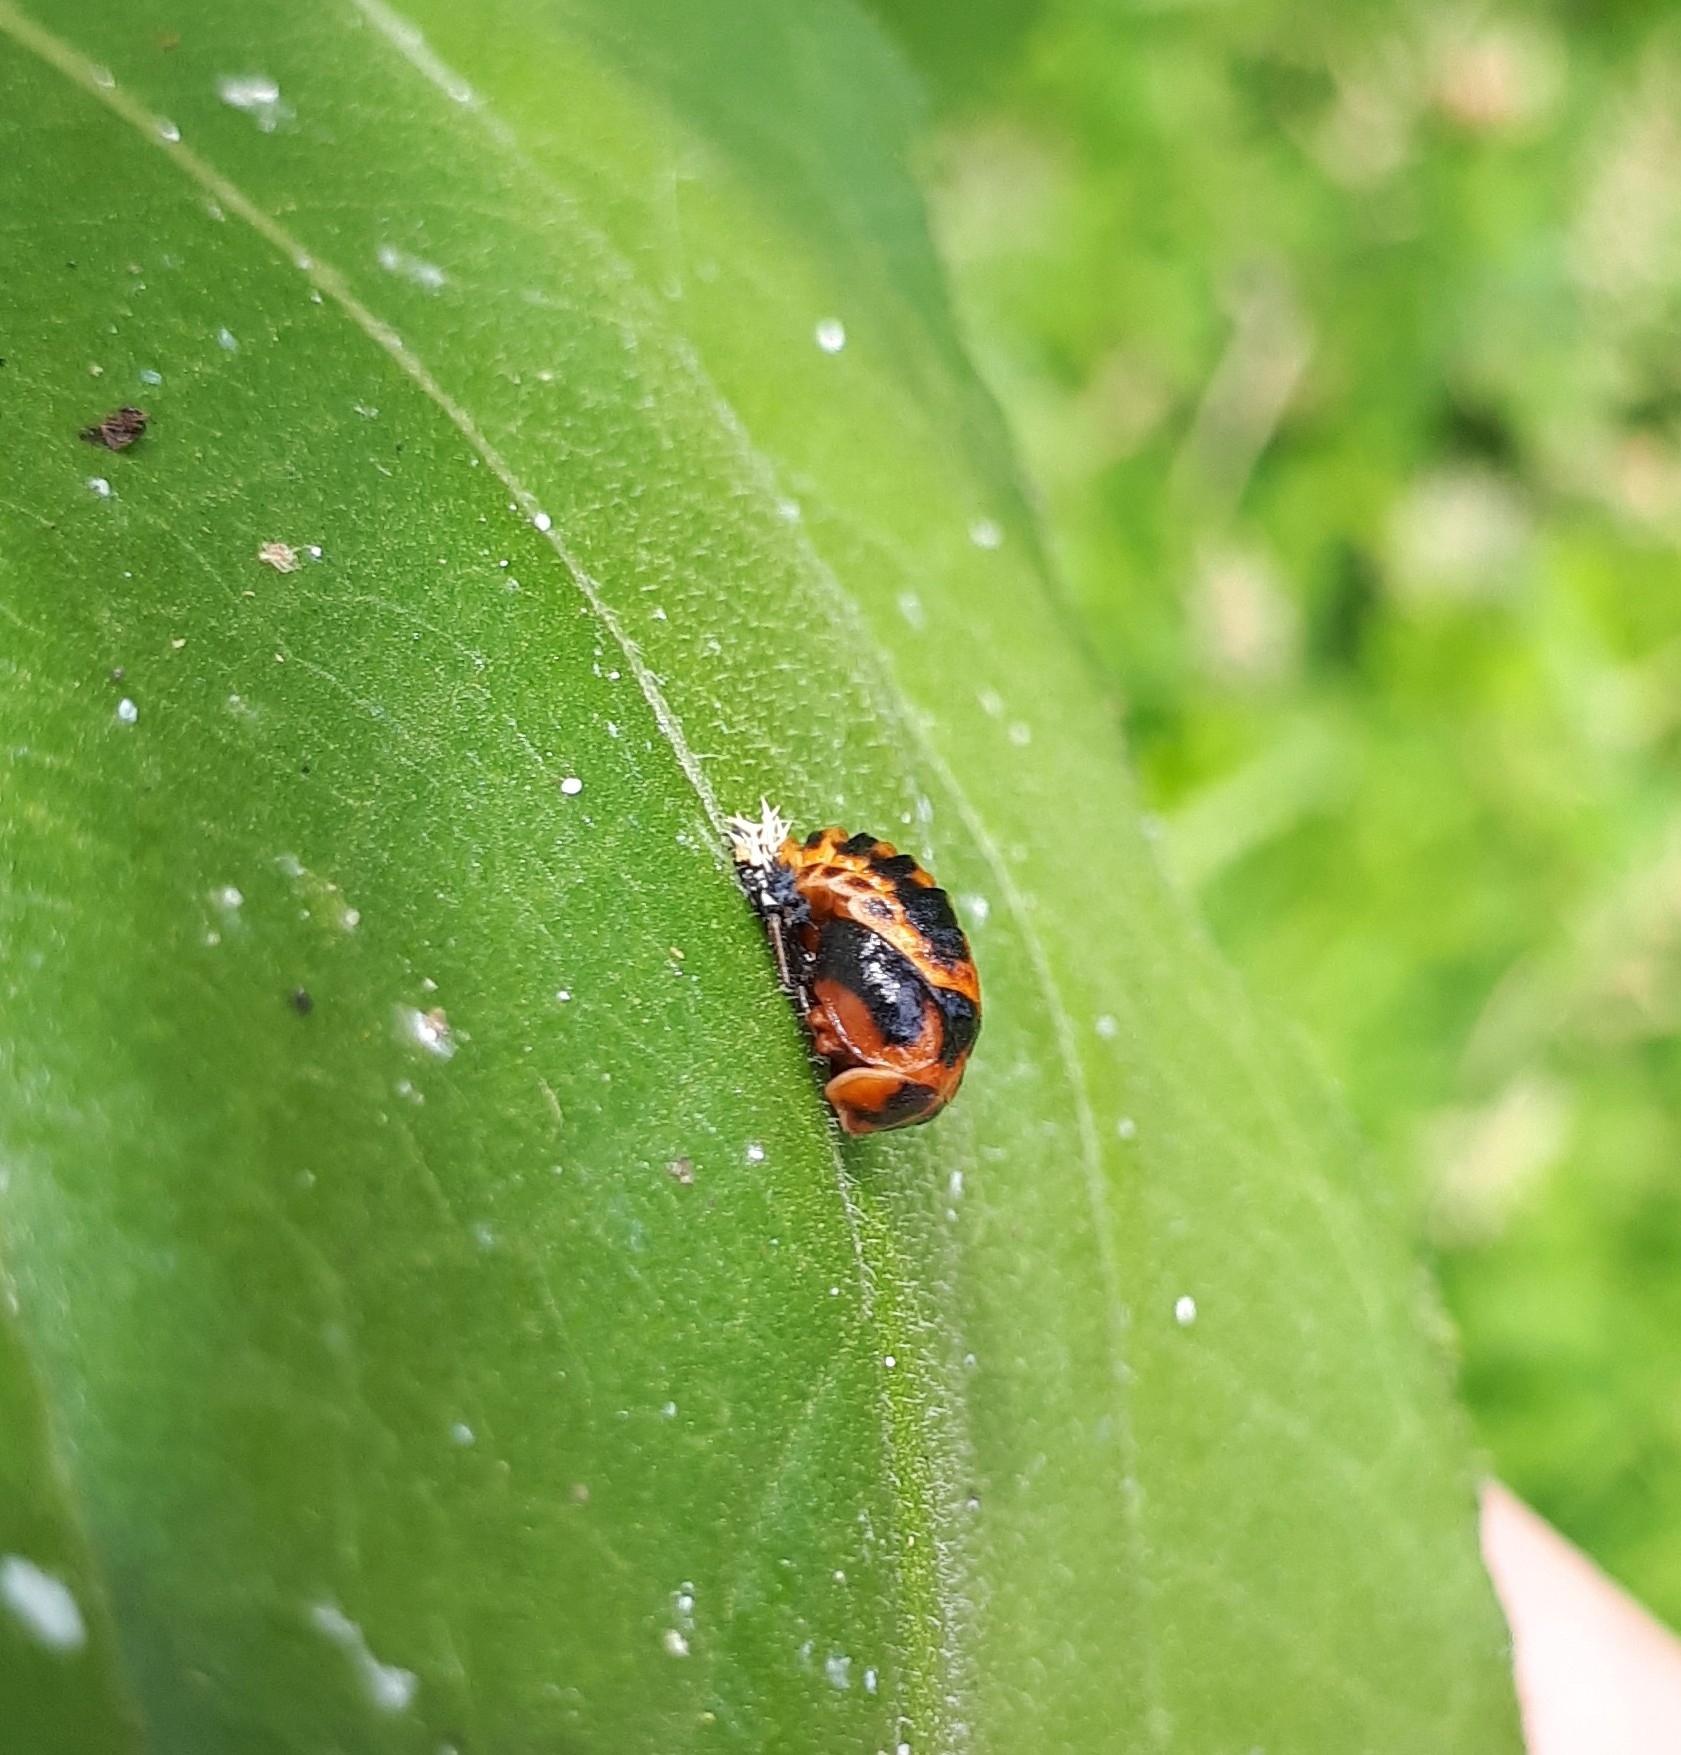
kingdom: Animalia
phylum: Arthropoda
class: Insecta
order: Coleoptera
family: Coccinellidae
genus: Harmonia
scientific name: Harmonia axyridis
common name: Harlequin ladybird
